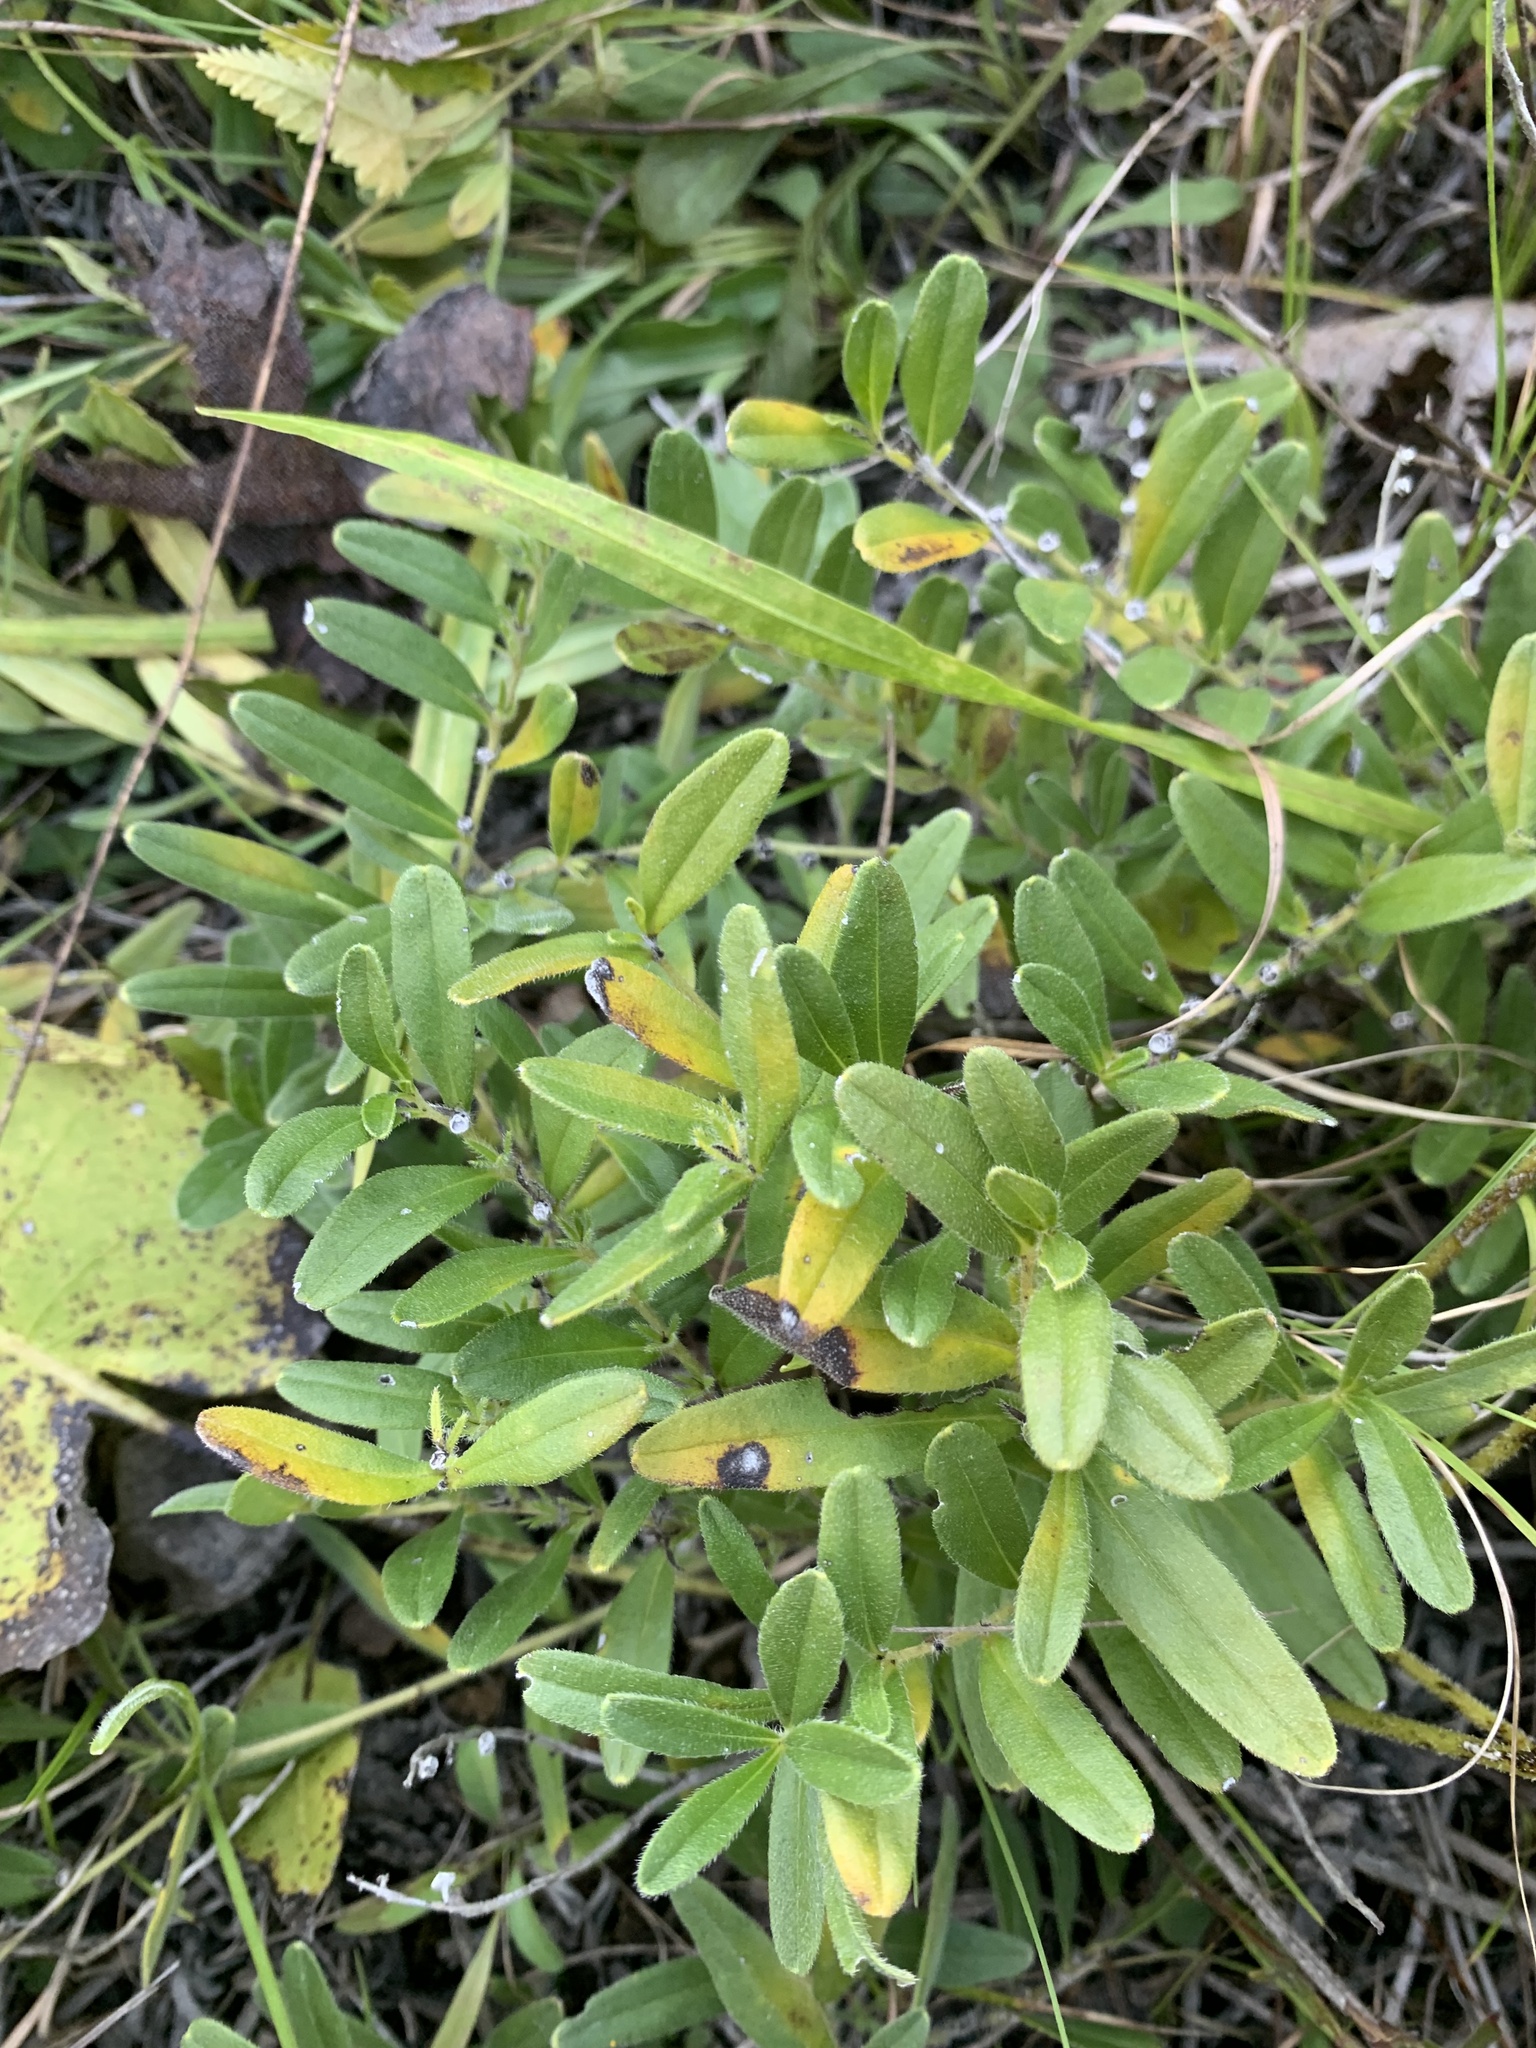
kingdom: Plantae
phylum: Tracheophyta
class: Magnoliopsida
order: Boraginales
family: Boraginaceae
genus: Lithospermum
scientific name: Lithospermum canescens
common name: Hoary puccoon
